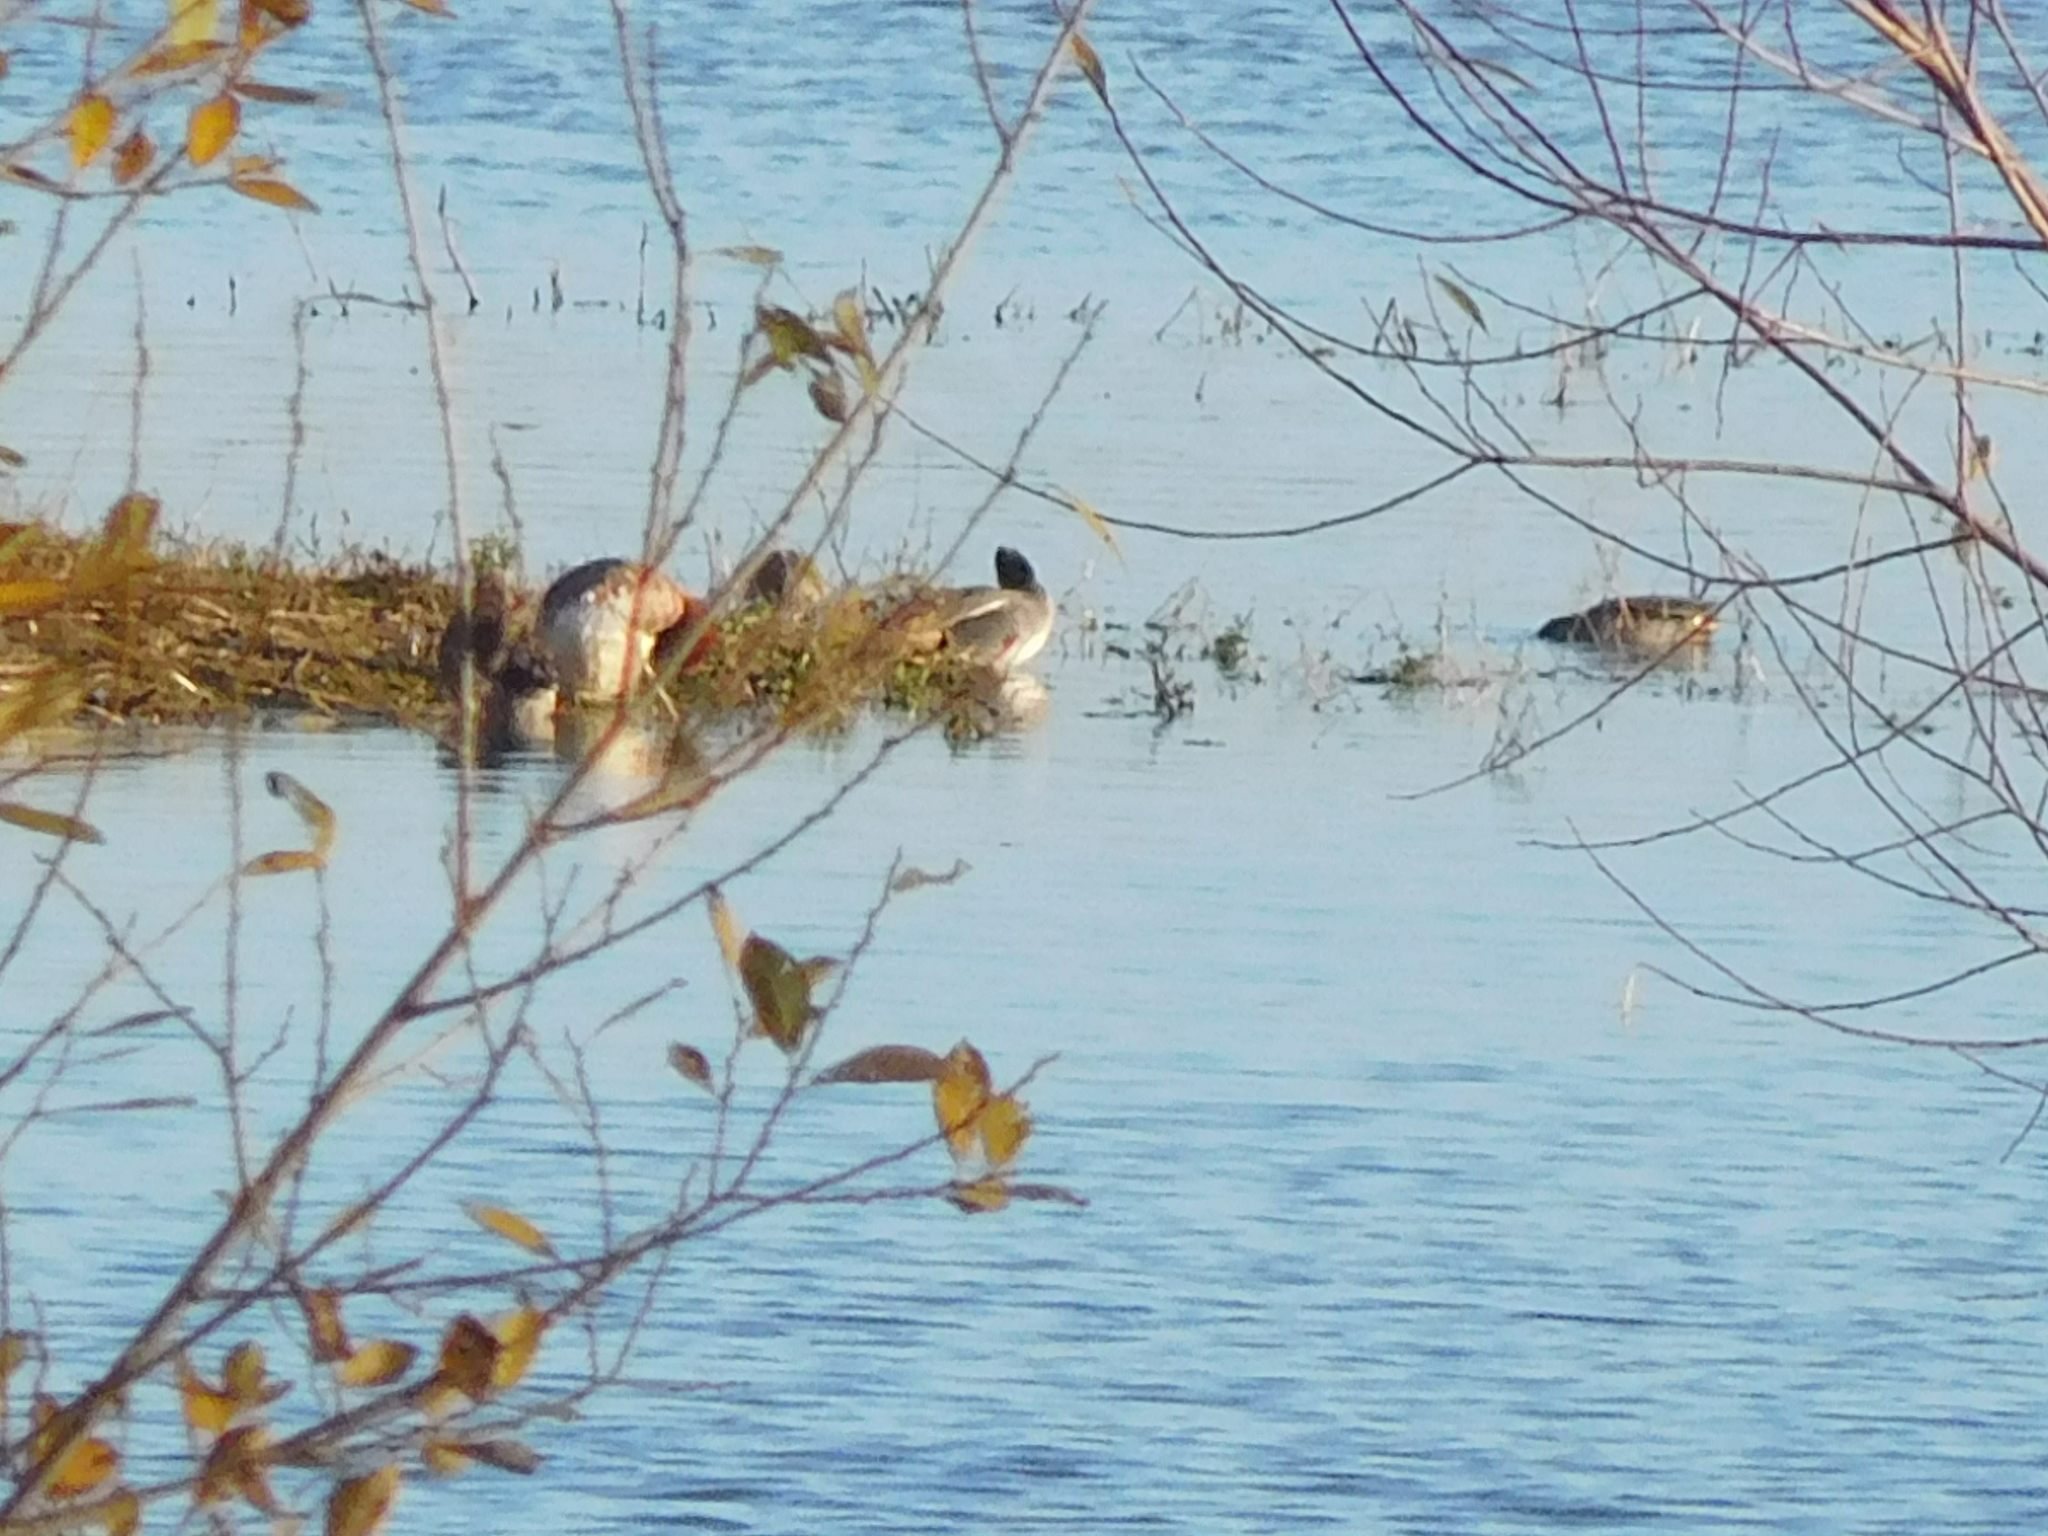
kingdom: Animalia
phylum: Chordata
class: Aves
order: Anseriformes
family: Anatidae
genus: Mareca
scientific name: Mareca penelope
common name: Eurasian wigeon
